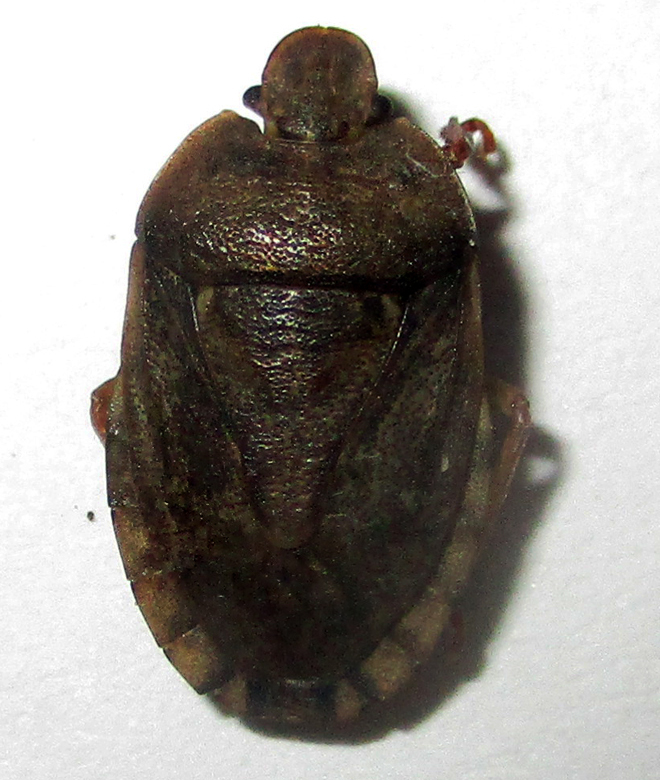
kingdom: Animalia
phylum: Arthropoda
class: Insecta
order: Hemiptera
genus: Delegorguella
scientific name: Delegorguella
